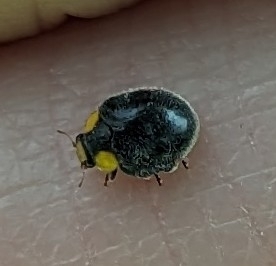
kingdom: Animalia
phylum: Arthropoda
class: Insecta
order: Coleoptera
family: Coccinellidae
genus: Scymnodes
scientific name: Scymnodes lividigaster
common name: Yellowshouldered lady beetle
